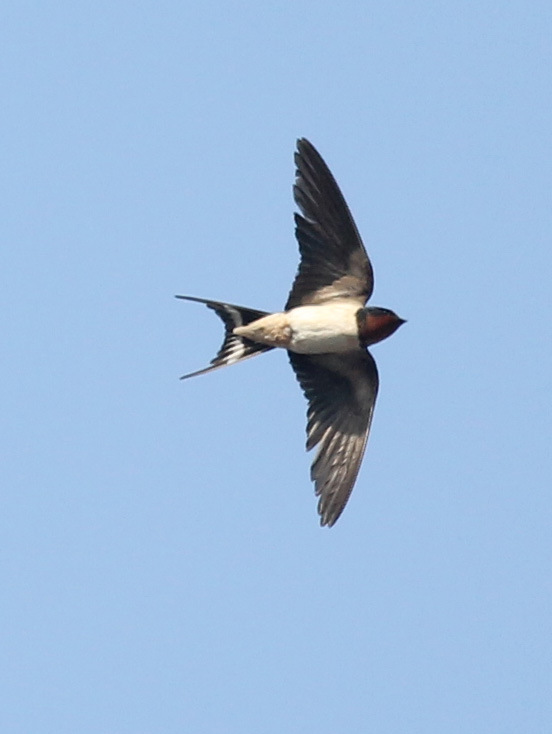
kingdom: Animalia
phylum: Chordata
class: Aves
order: Passeriformes
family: Hirundinidae
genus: Hirundo
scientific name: Hirundo rustica
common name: Barn swallow
